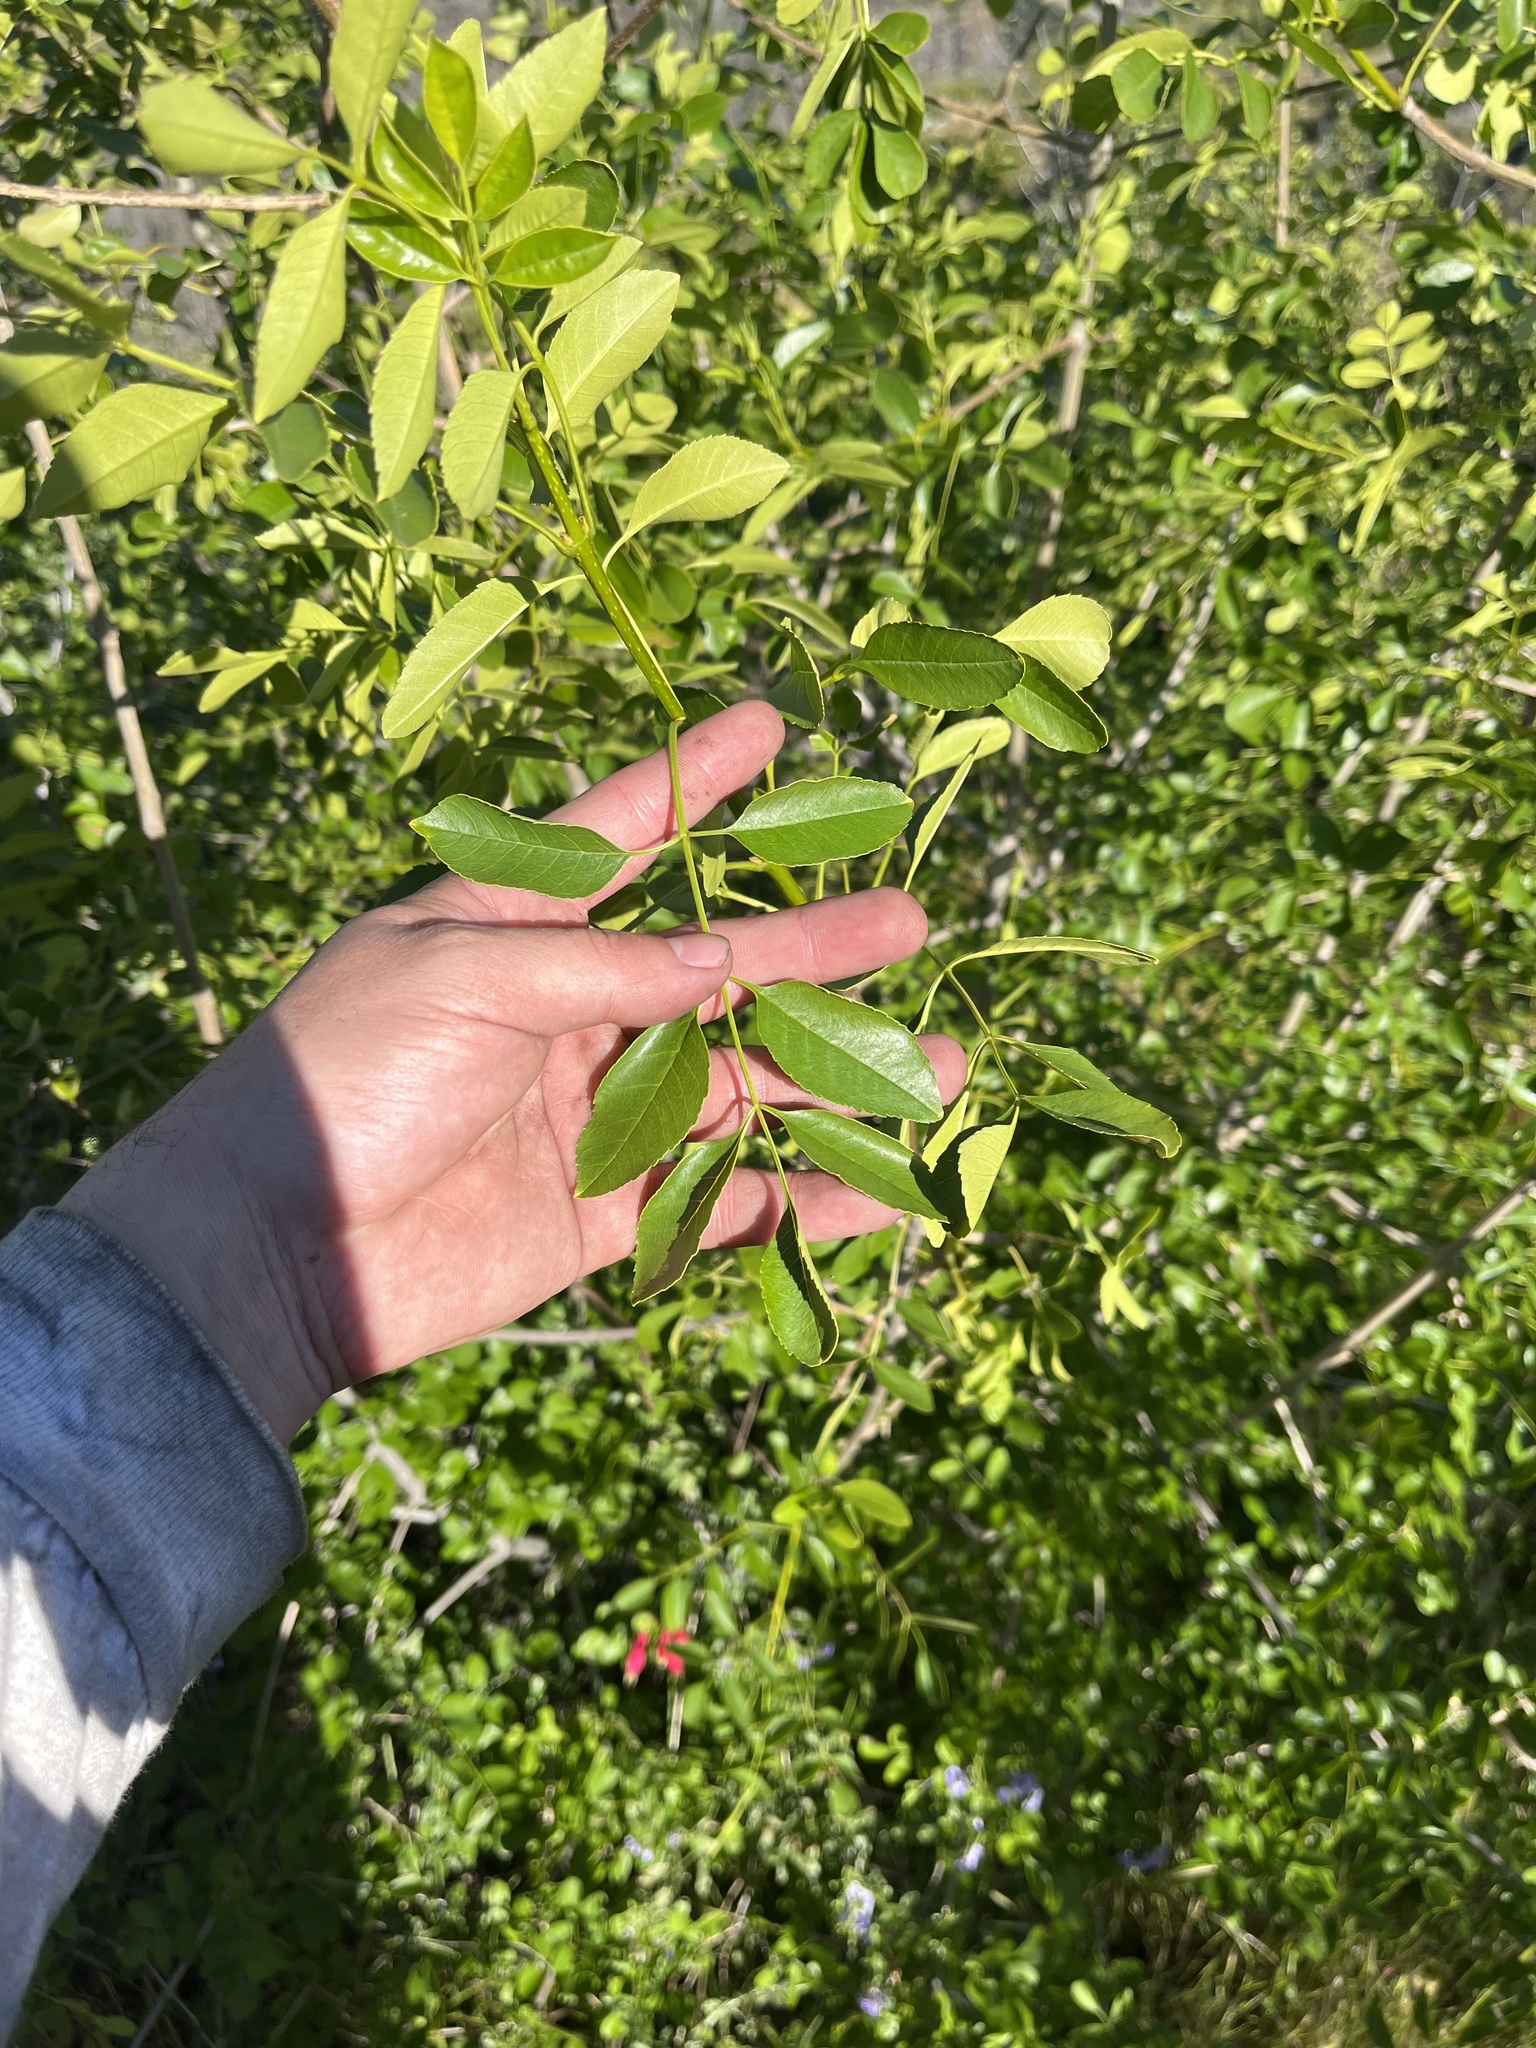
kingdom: Plantae
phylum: Tracheophyta
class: Magnoliopsida
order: Lamiales
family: Oleaceae
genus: Fraxinus
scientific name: Fraxinus dipetala
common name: California ash
